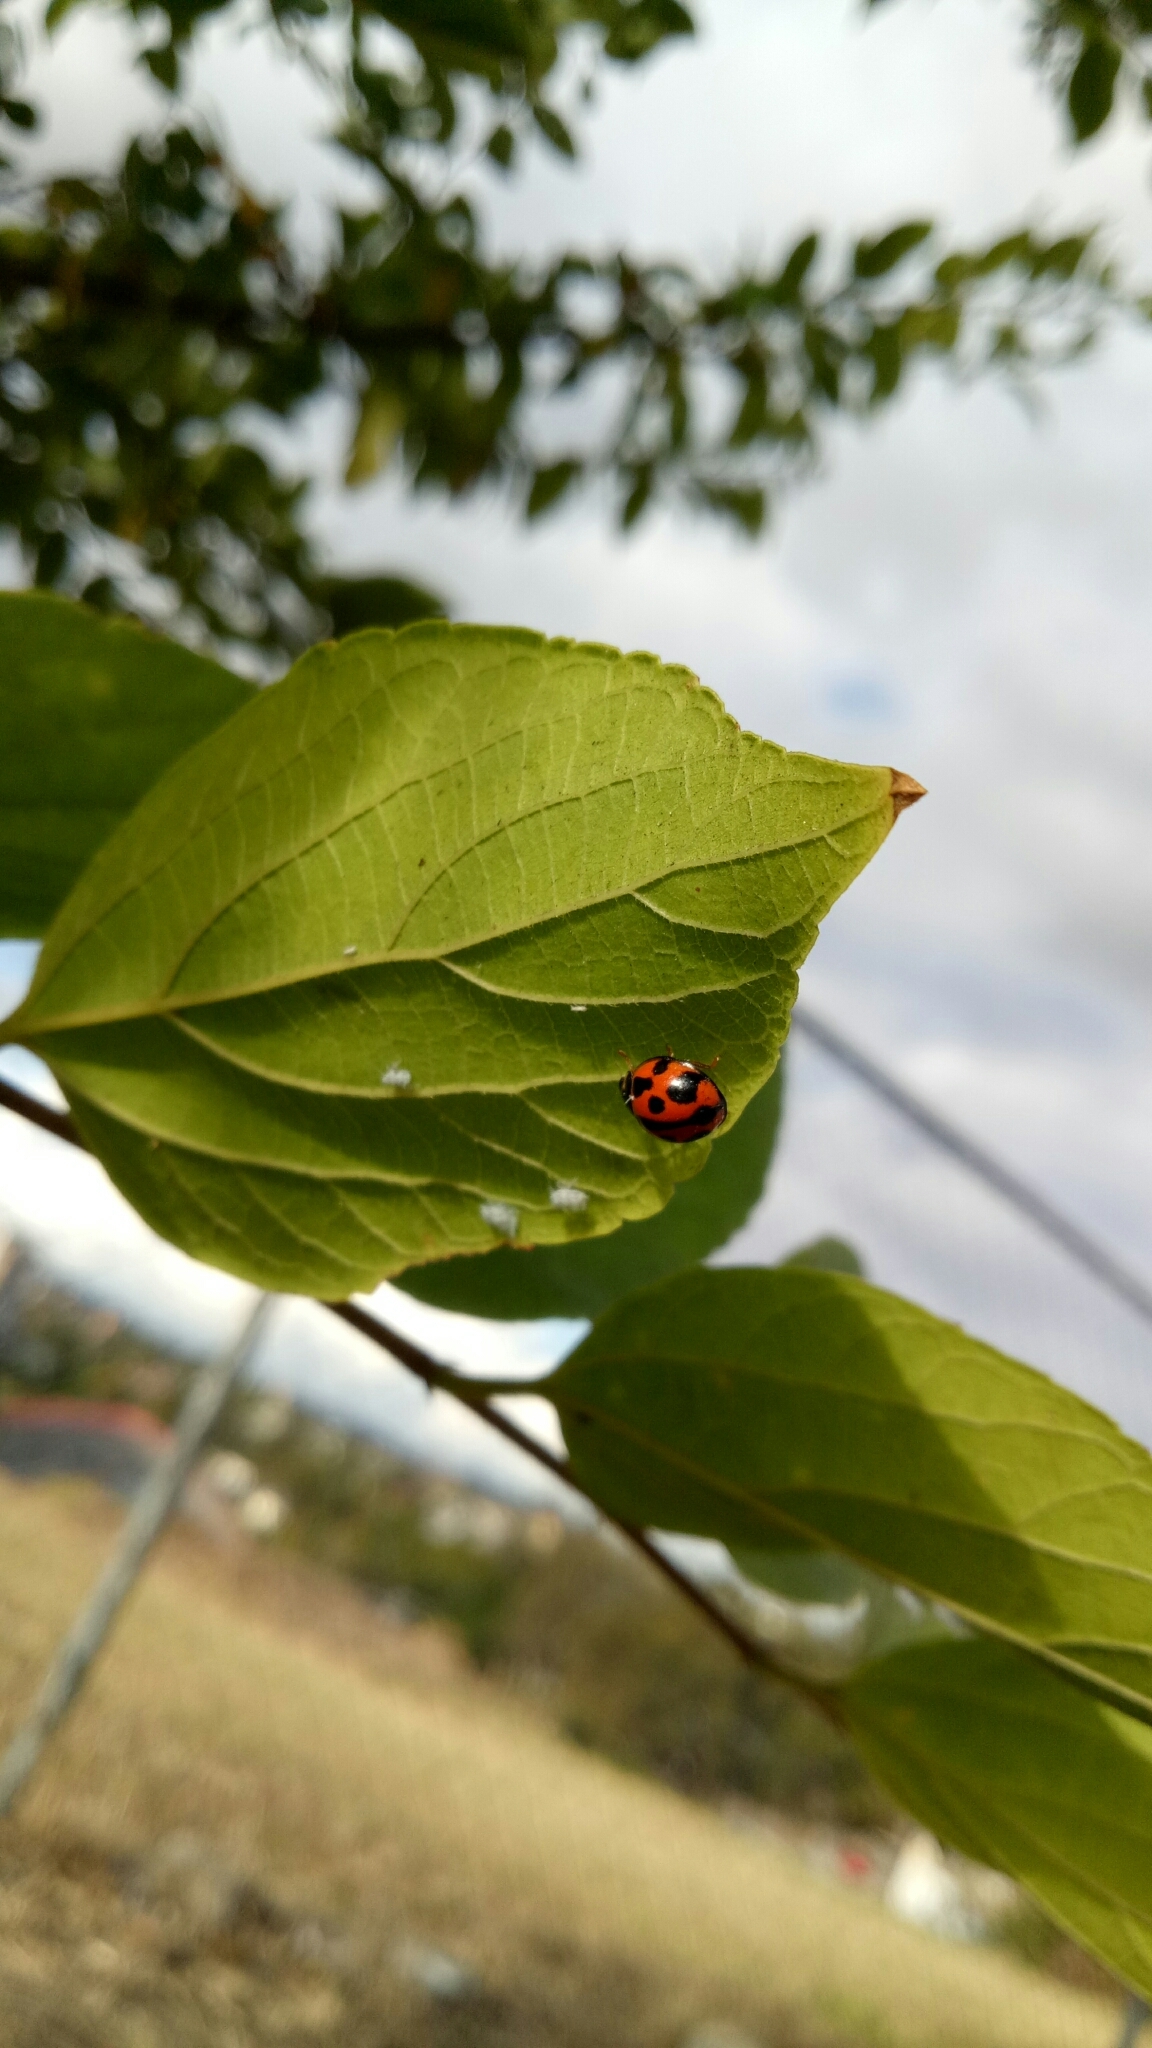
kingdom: Animalia
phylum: Arthropoda
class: Insecta
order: Coleoptera
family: Coccinellidae
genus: Coelophora
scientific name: Coelophora inaequalis
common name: Common australian lady beetle
